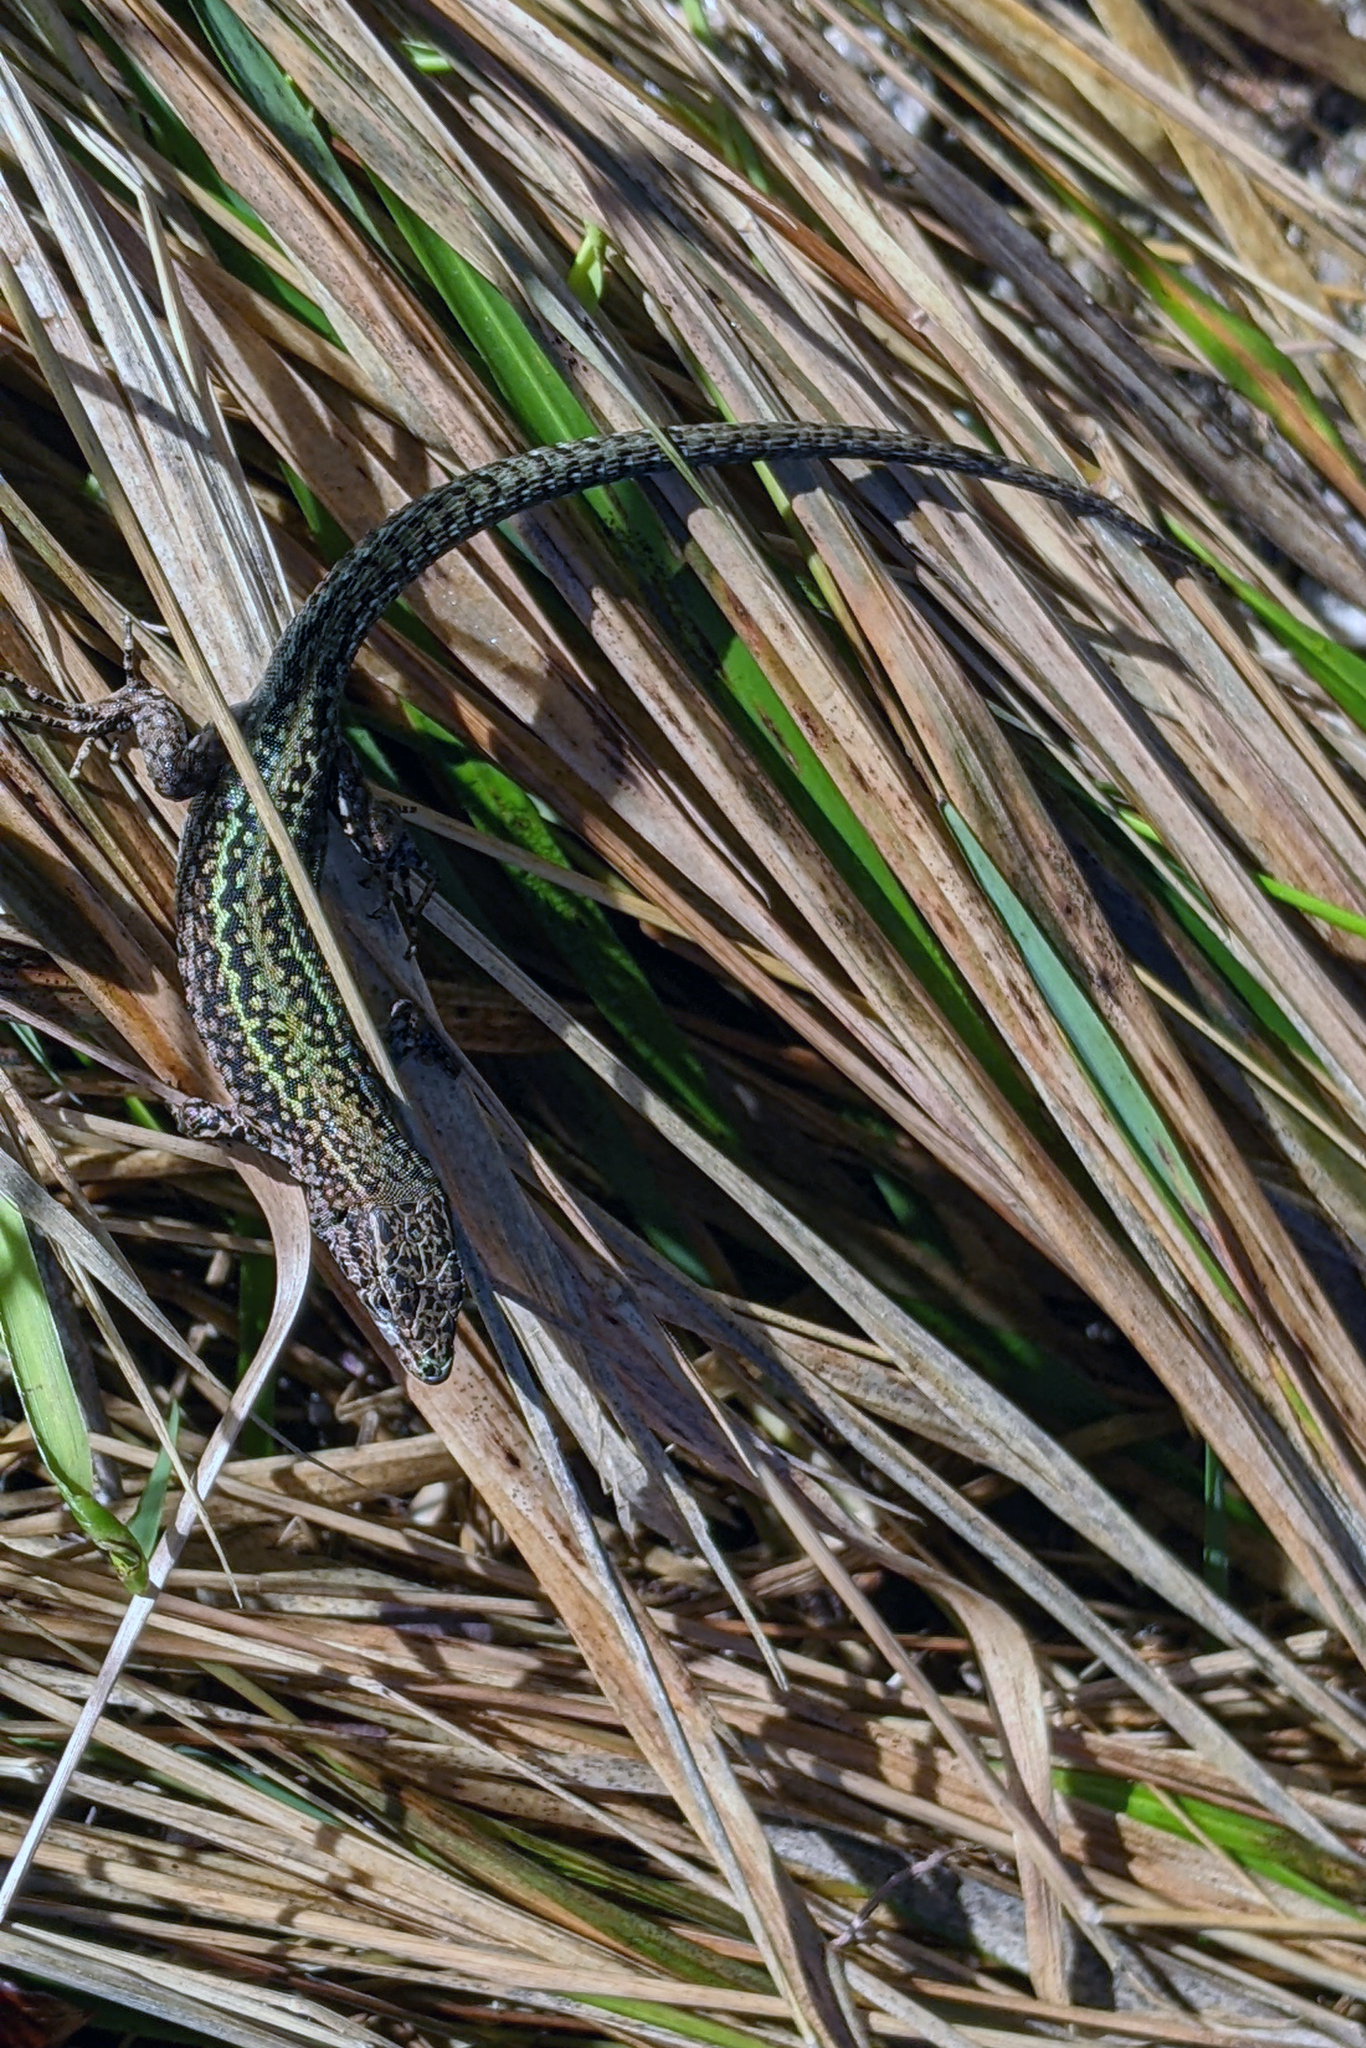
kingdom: Animalia
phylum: Chordata
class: Squamata
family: Lacertidae
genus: Podarcis
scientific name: Podarcis bocagei
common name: Bocage's wall lizard
